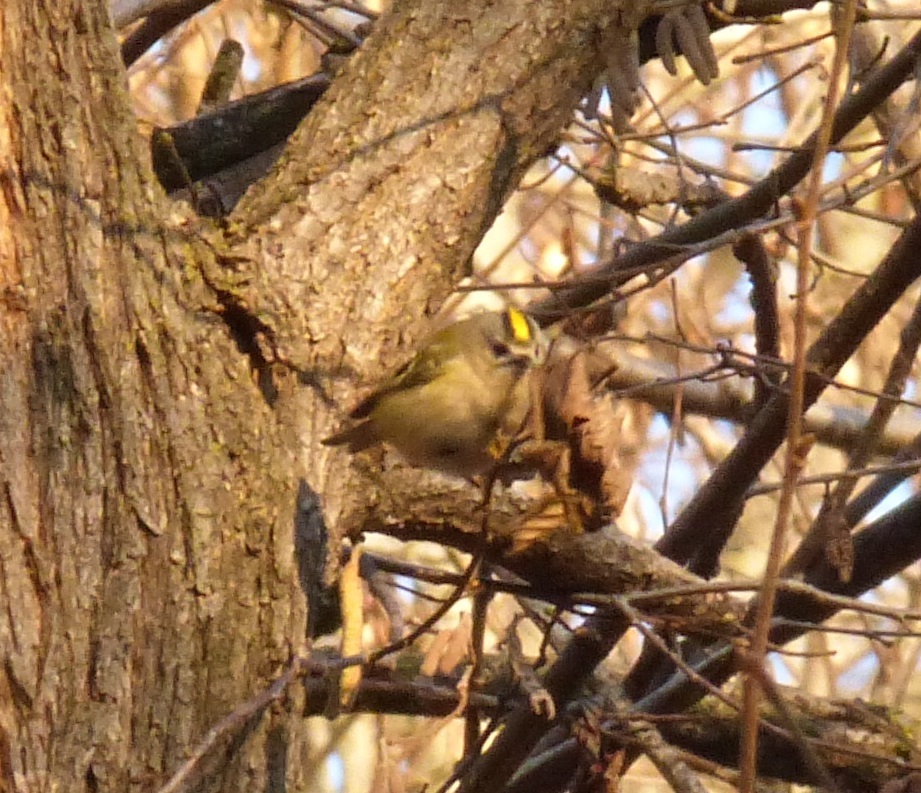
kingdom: Animalia
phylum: Chordata
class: Aves
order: Passeriformes
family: Regulidae
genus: Regulus
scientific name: Regulus regulus
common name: Goldcrest
